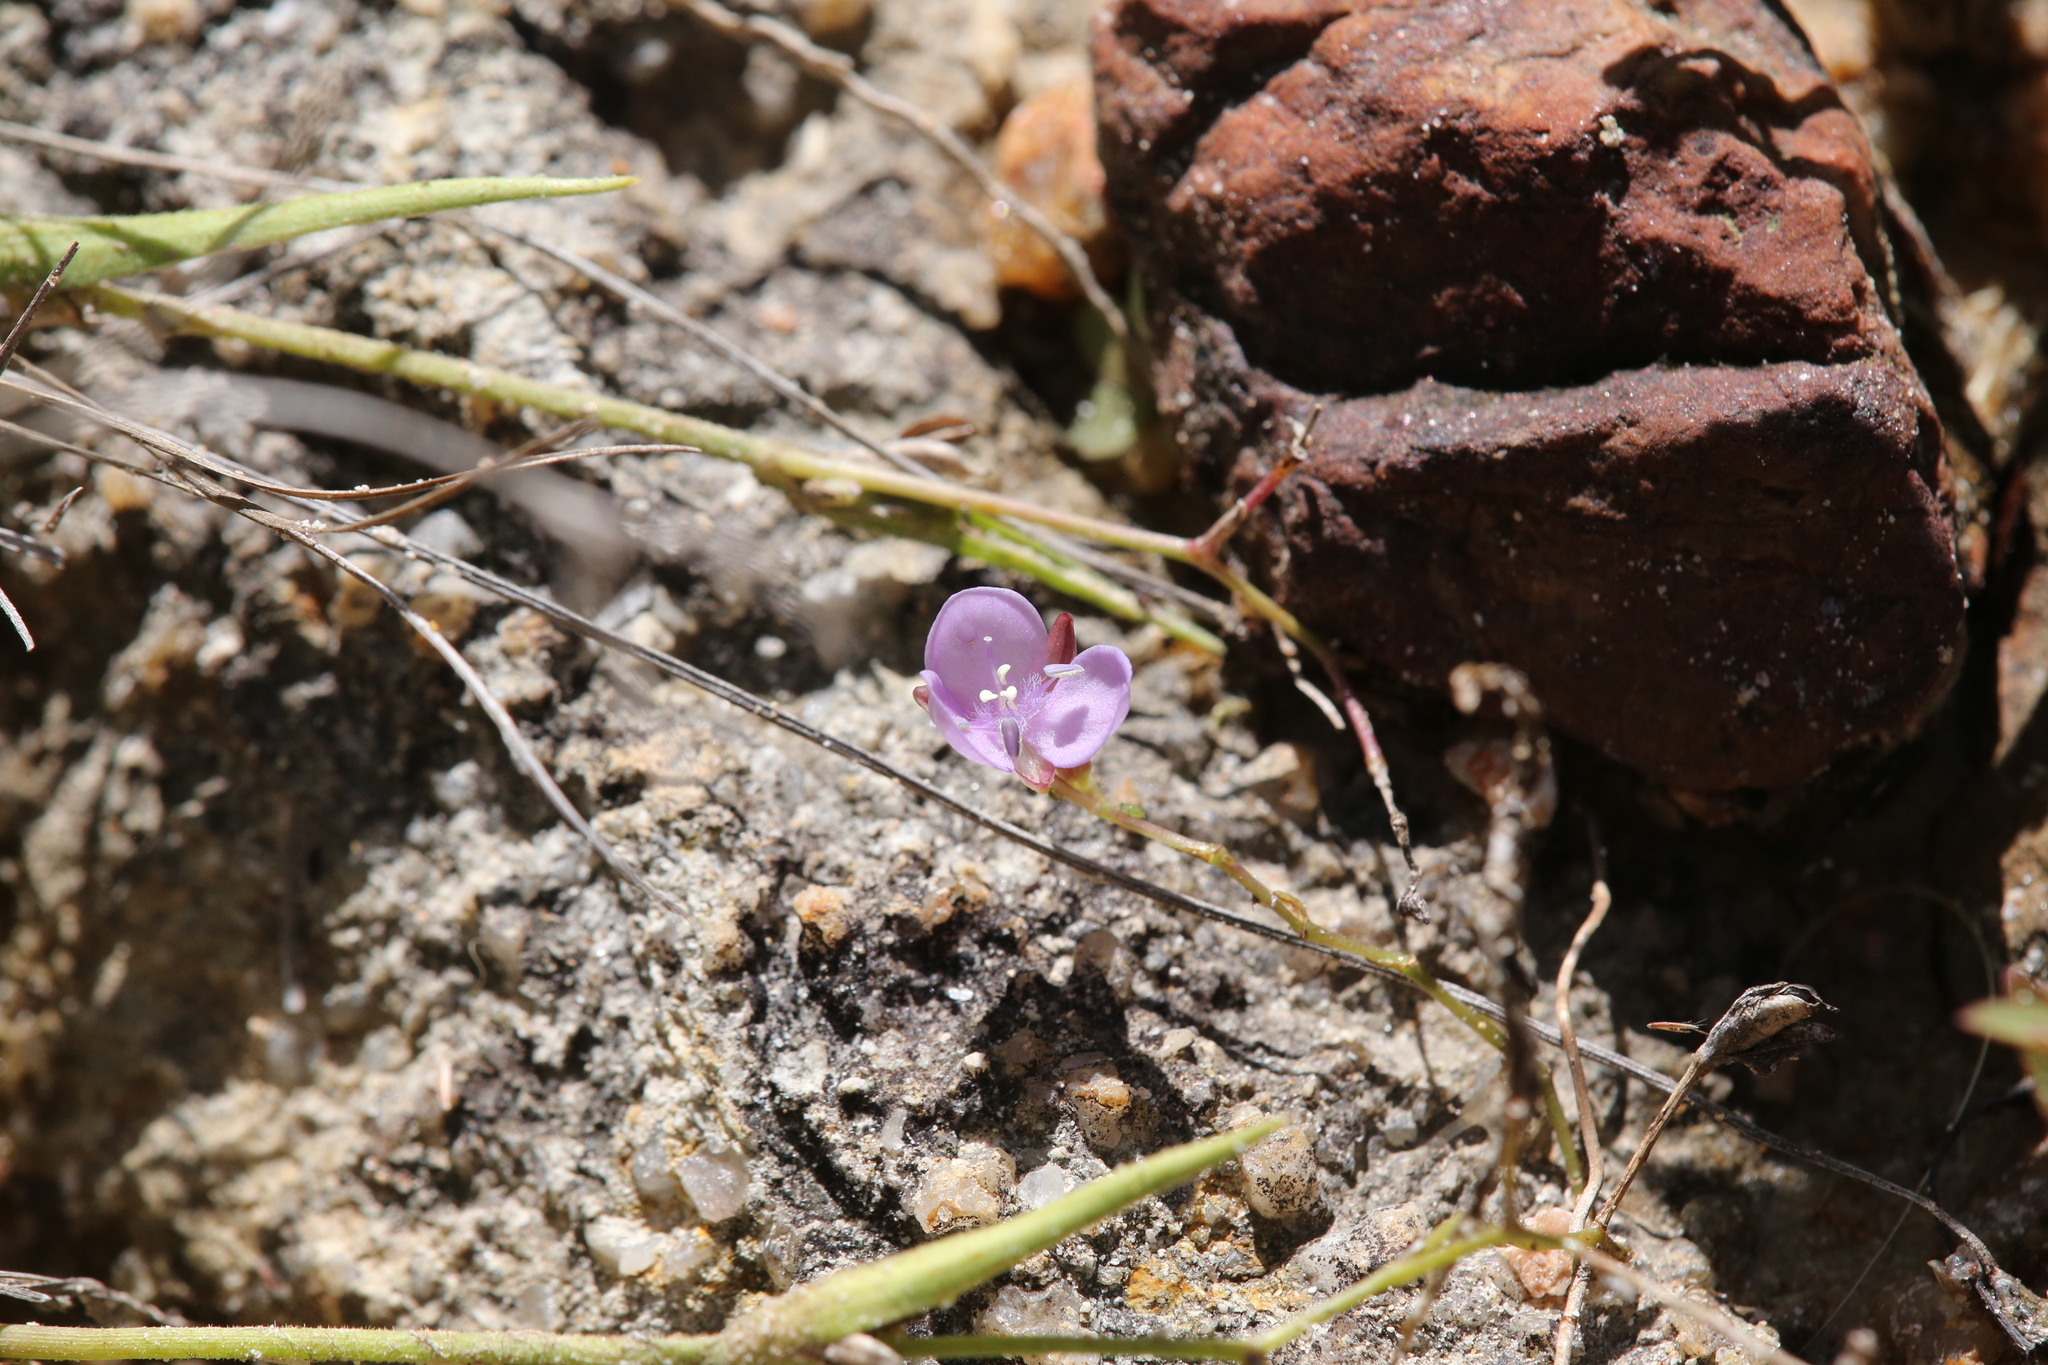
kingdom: Plantae
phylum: Tracheophyta
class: Liliopsida
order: Commelinales
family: Commelinaceae
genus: Murdannia
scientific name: Murdannia graminea
